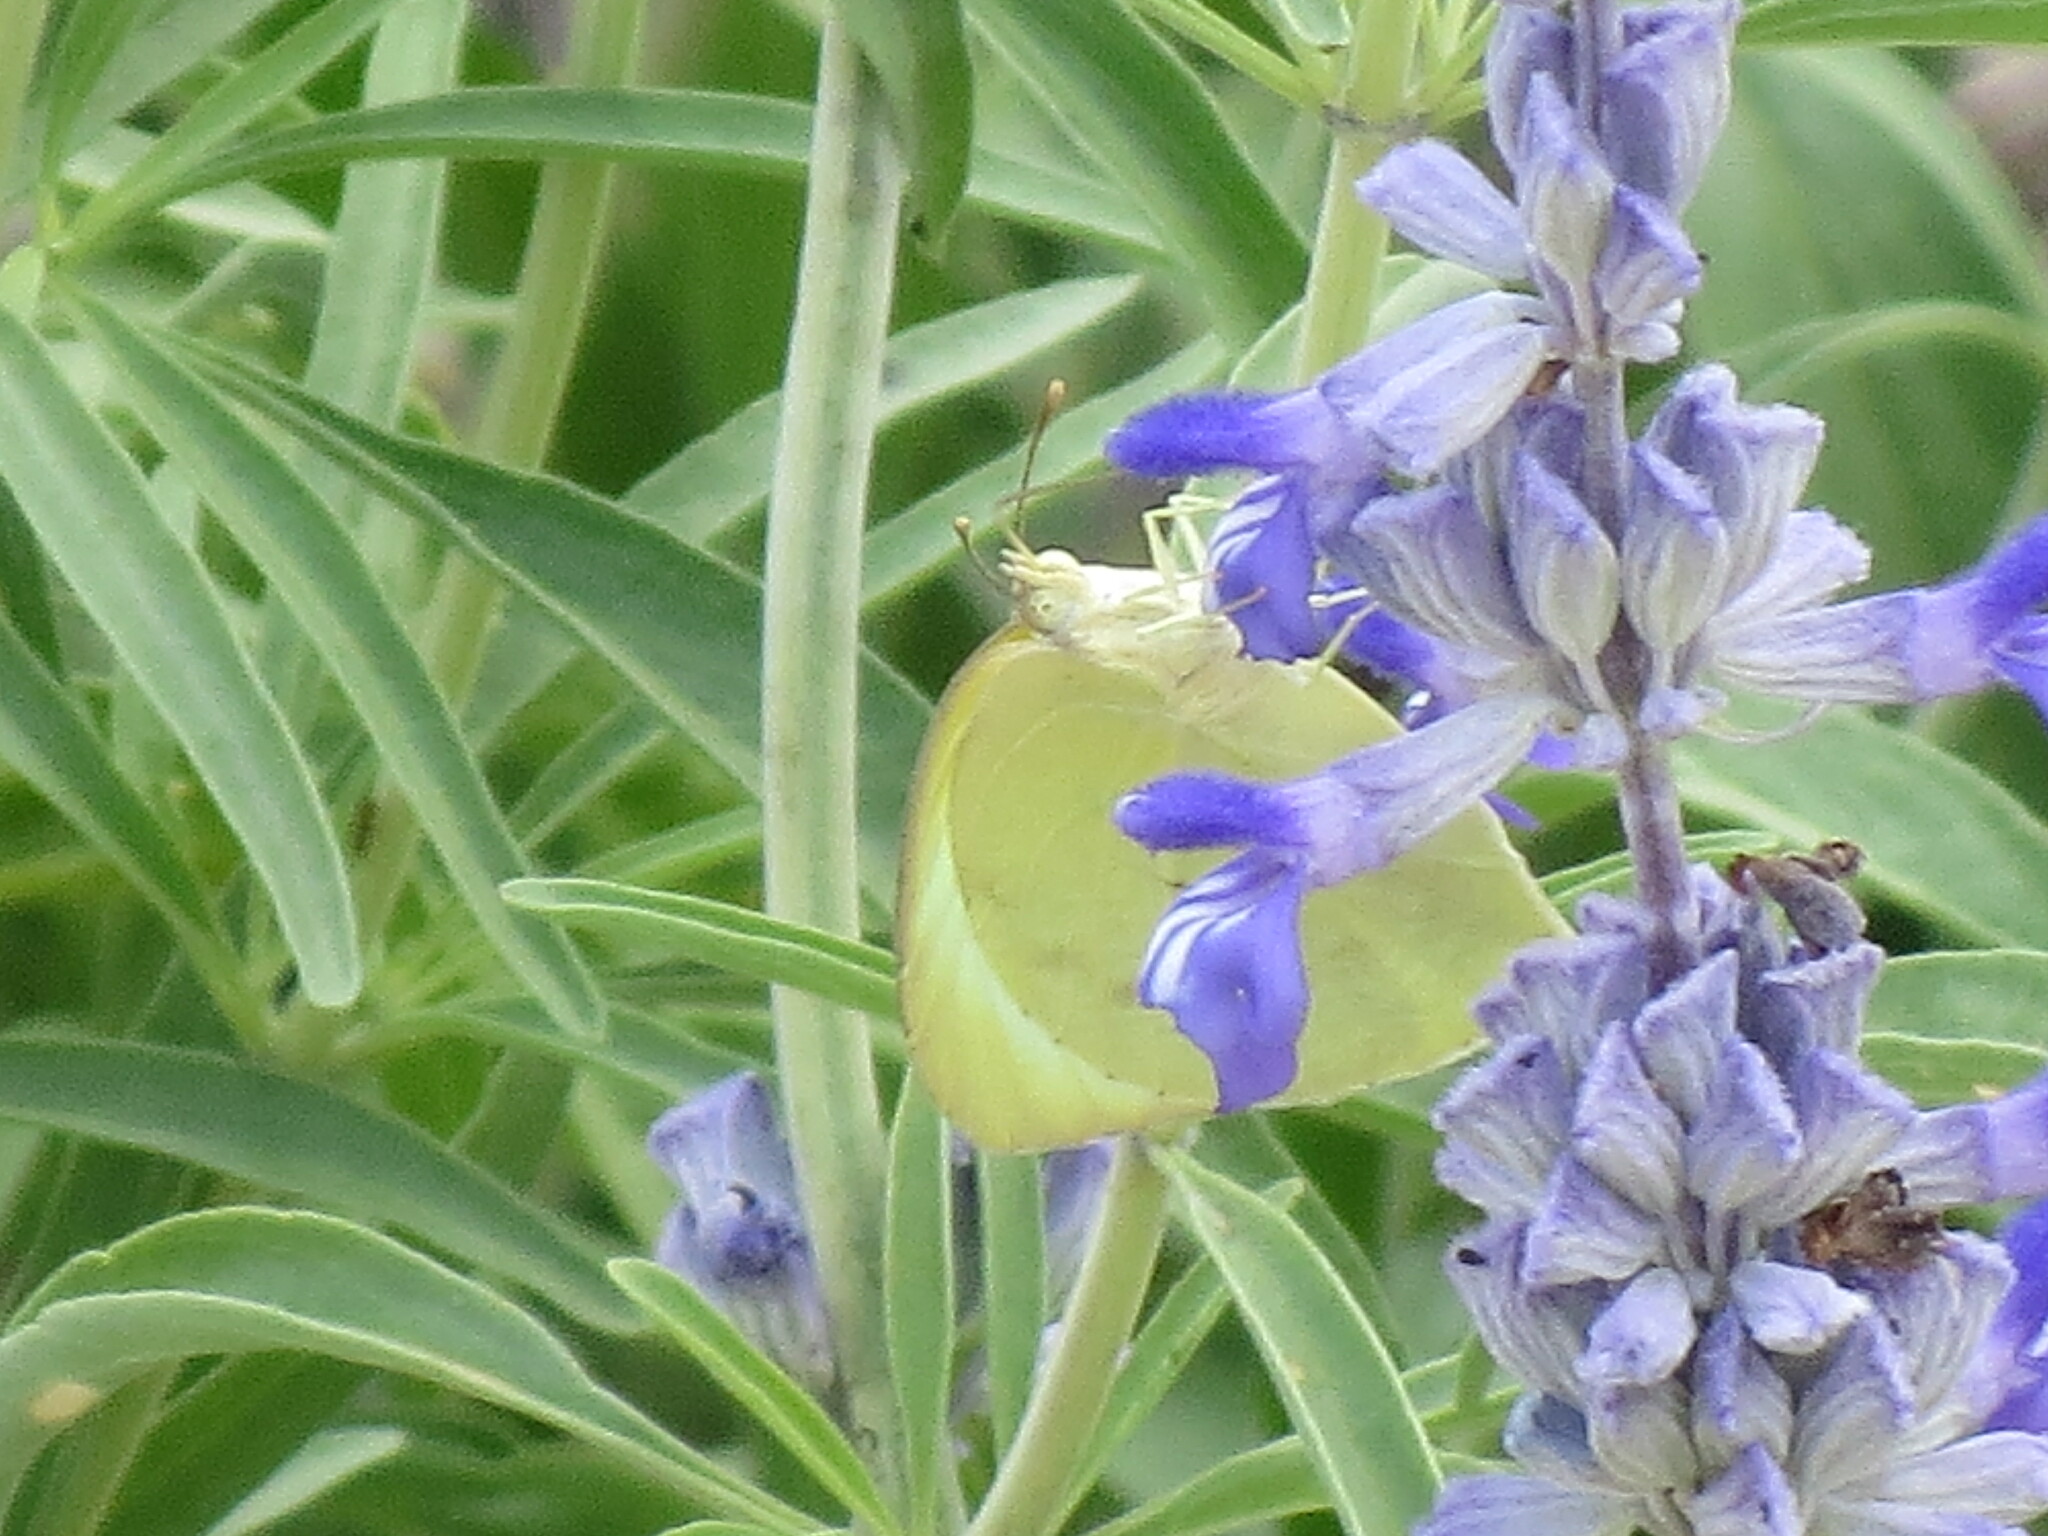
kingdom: Animalia
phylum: Arthropoda
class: Insecta
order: Lepidoptera
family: Pieridae
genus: Kricogonia
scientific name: Kricogonia lyside
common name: Guayacan sulphur,
